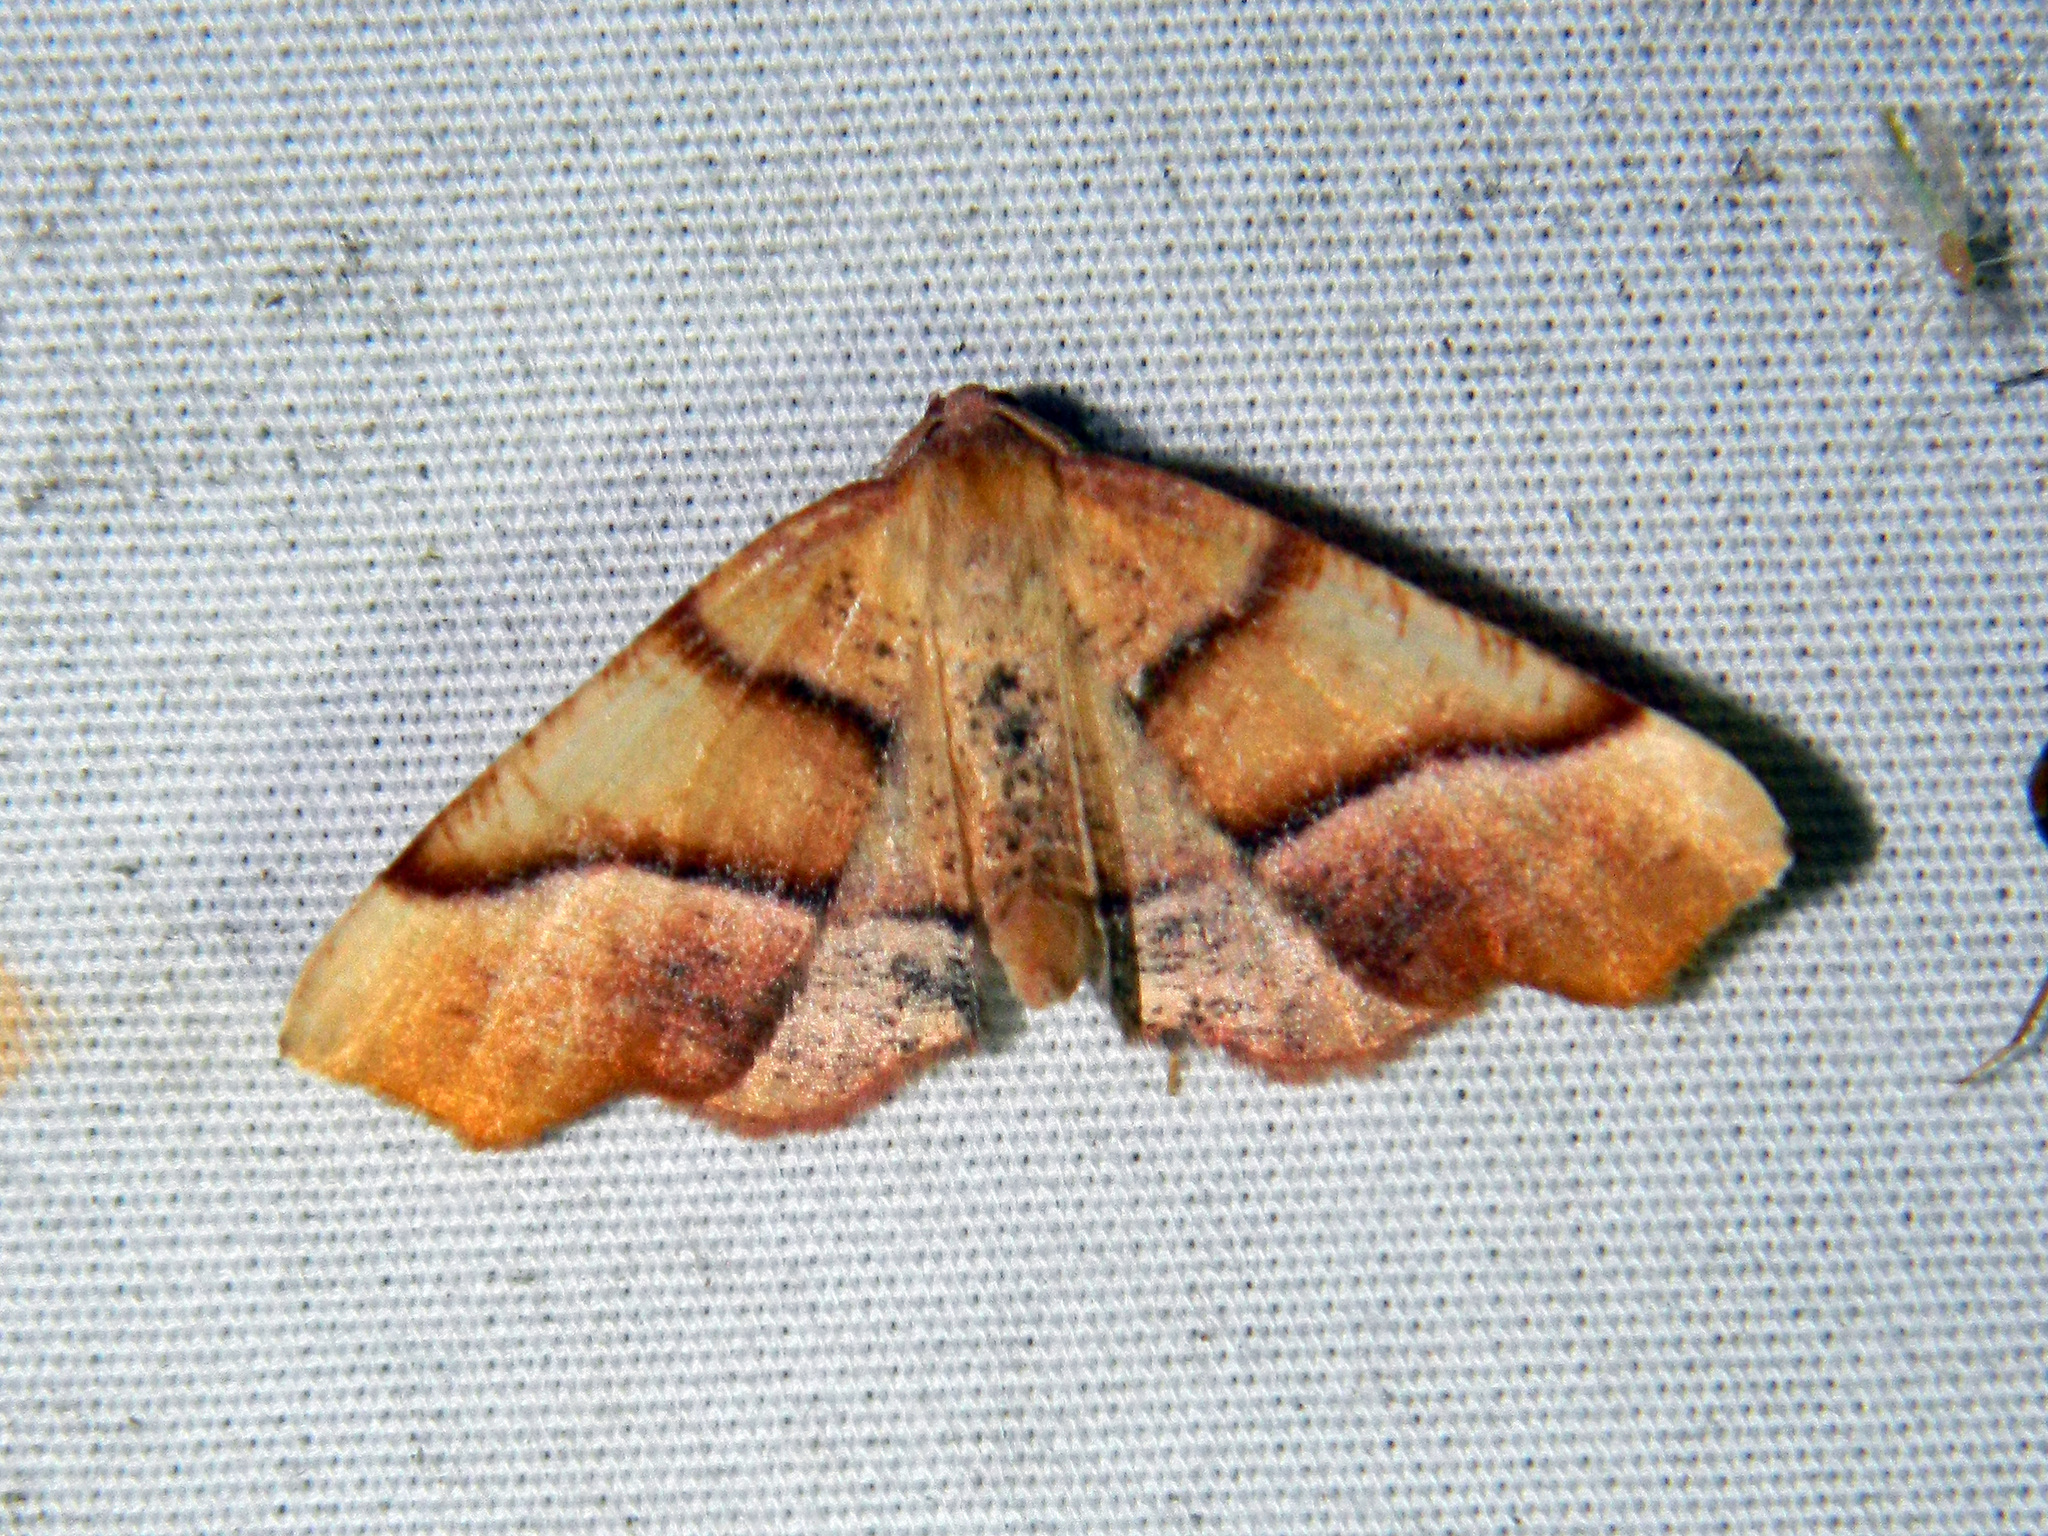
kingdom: Animalia
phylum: Arthropoda
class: Insecta
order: Lepidoptera
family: Geometridae
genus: Plagodis
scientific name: Plagodis phlogosaria
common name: Straight-lined plagodis
